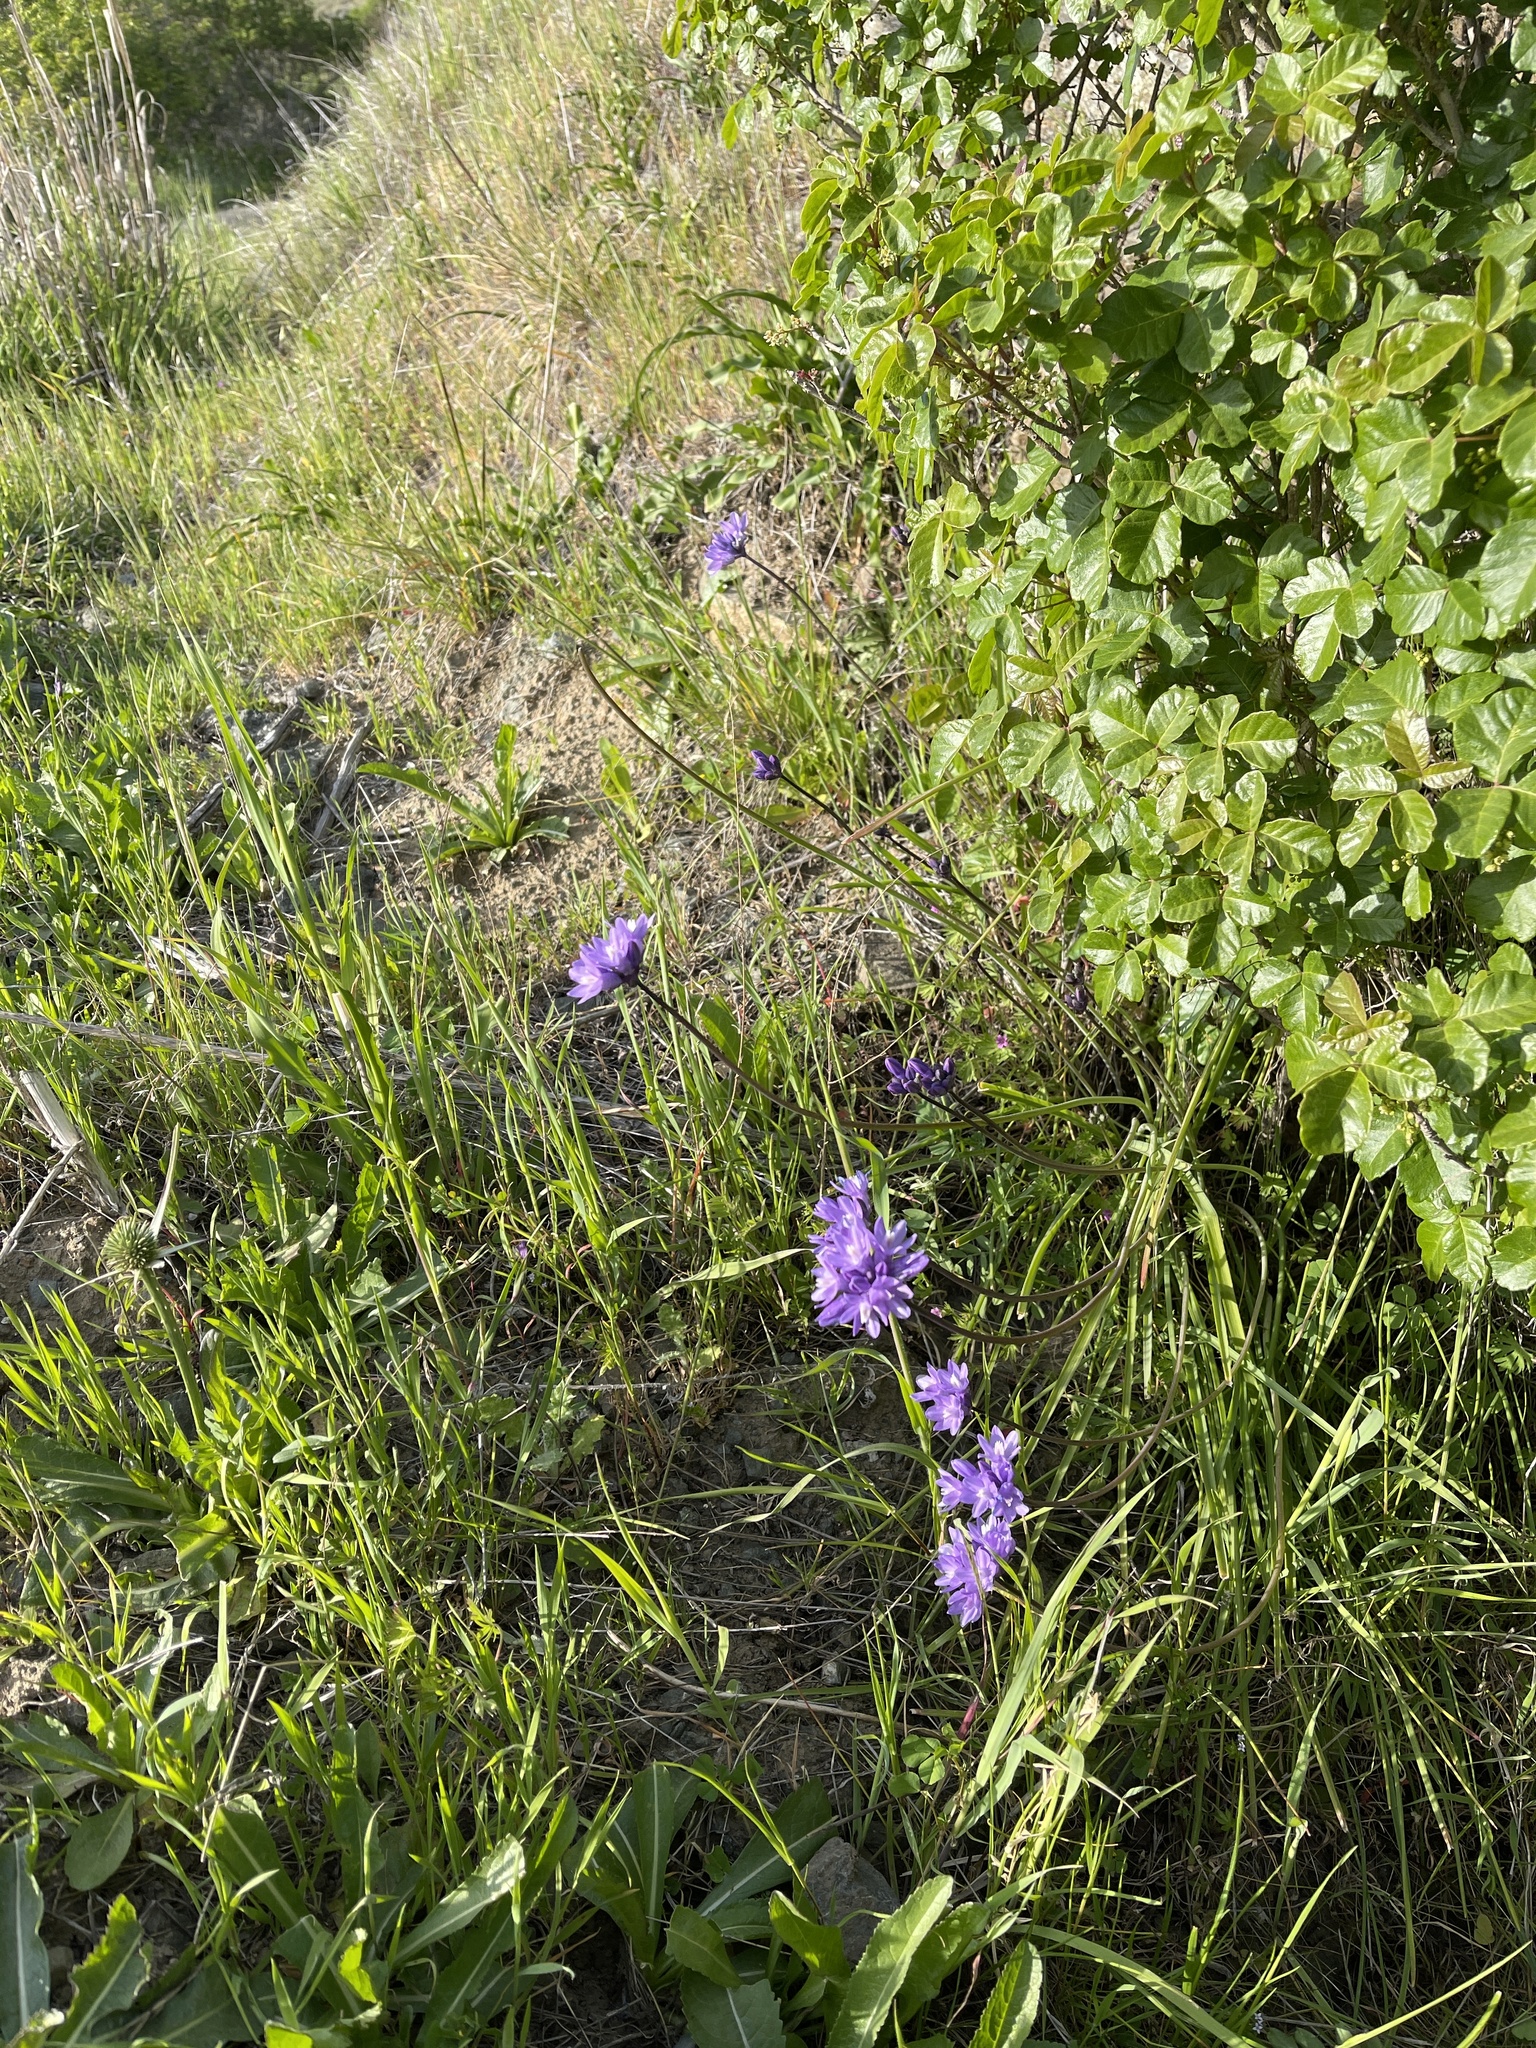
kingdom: Plantae
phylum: Tracheophyta
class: Liliopsida
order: Asparagales
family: Asparagaceae
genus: Dipterostemon
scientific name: Dipterostemon capitatus
